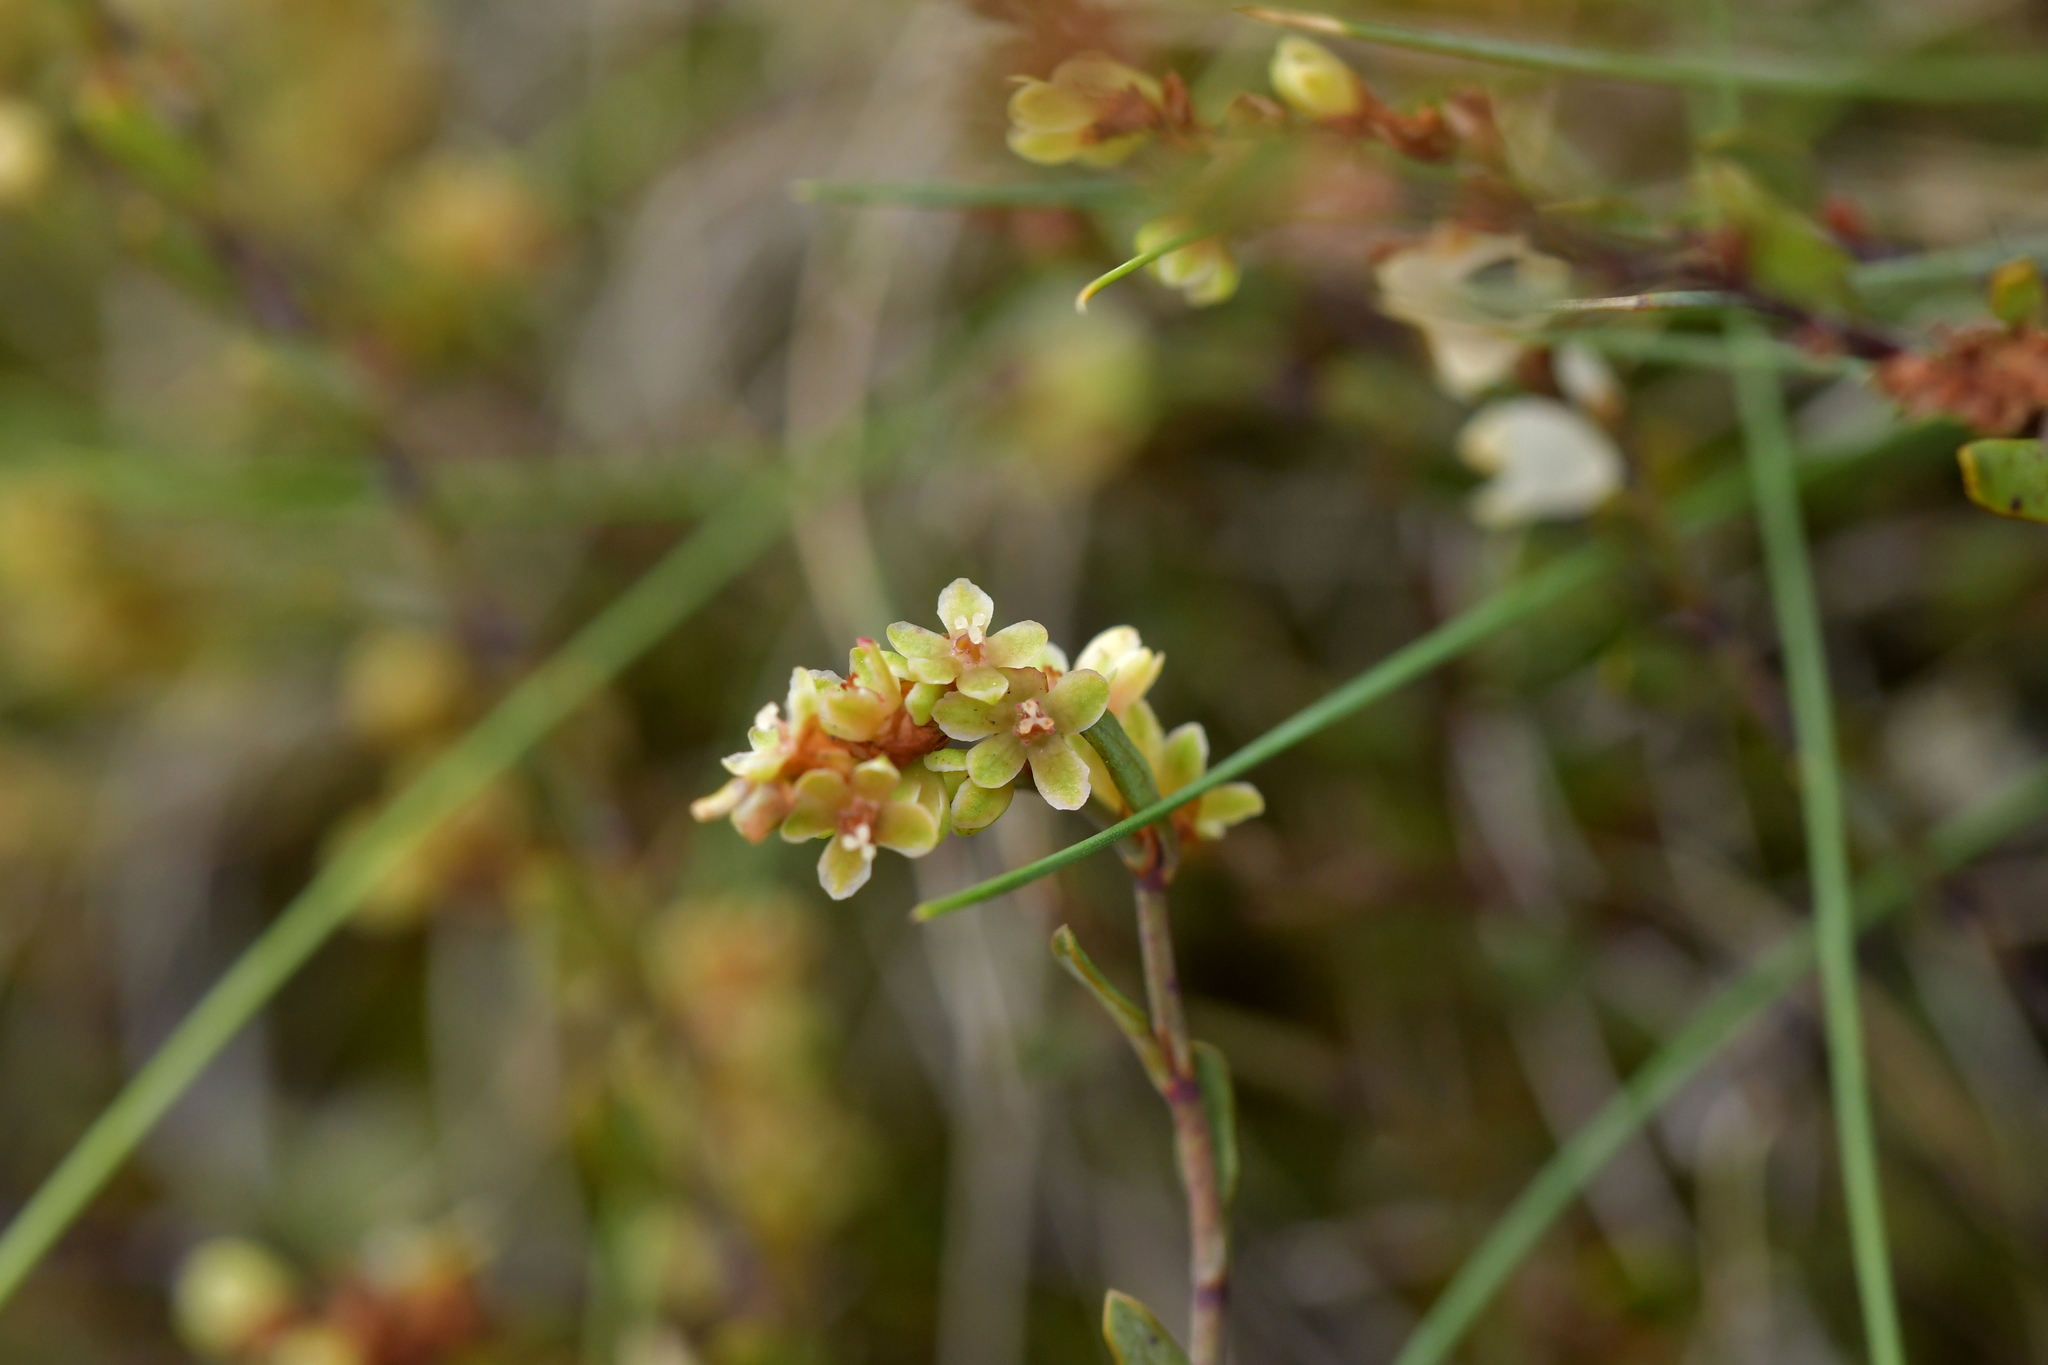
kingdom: Plantae
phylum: Tracheophyta
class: Magnoliopsida
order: Caryophyllales
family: Polygonaceae
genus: Muehlenbeckia
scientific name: Muehlenbeckia axillaris
